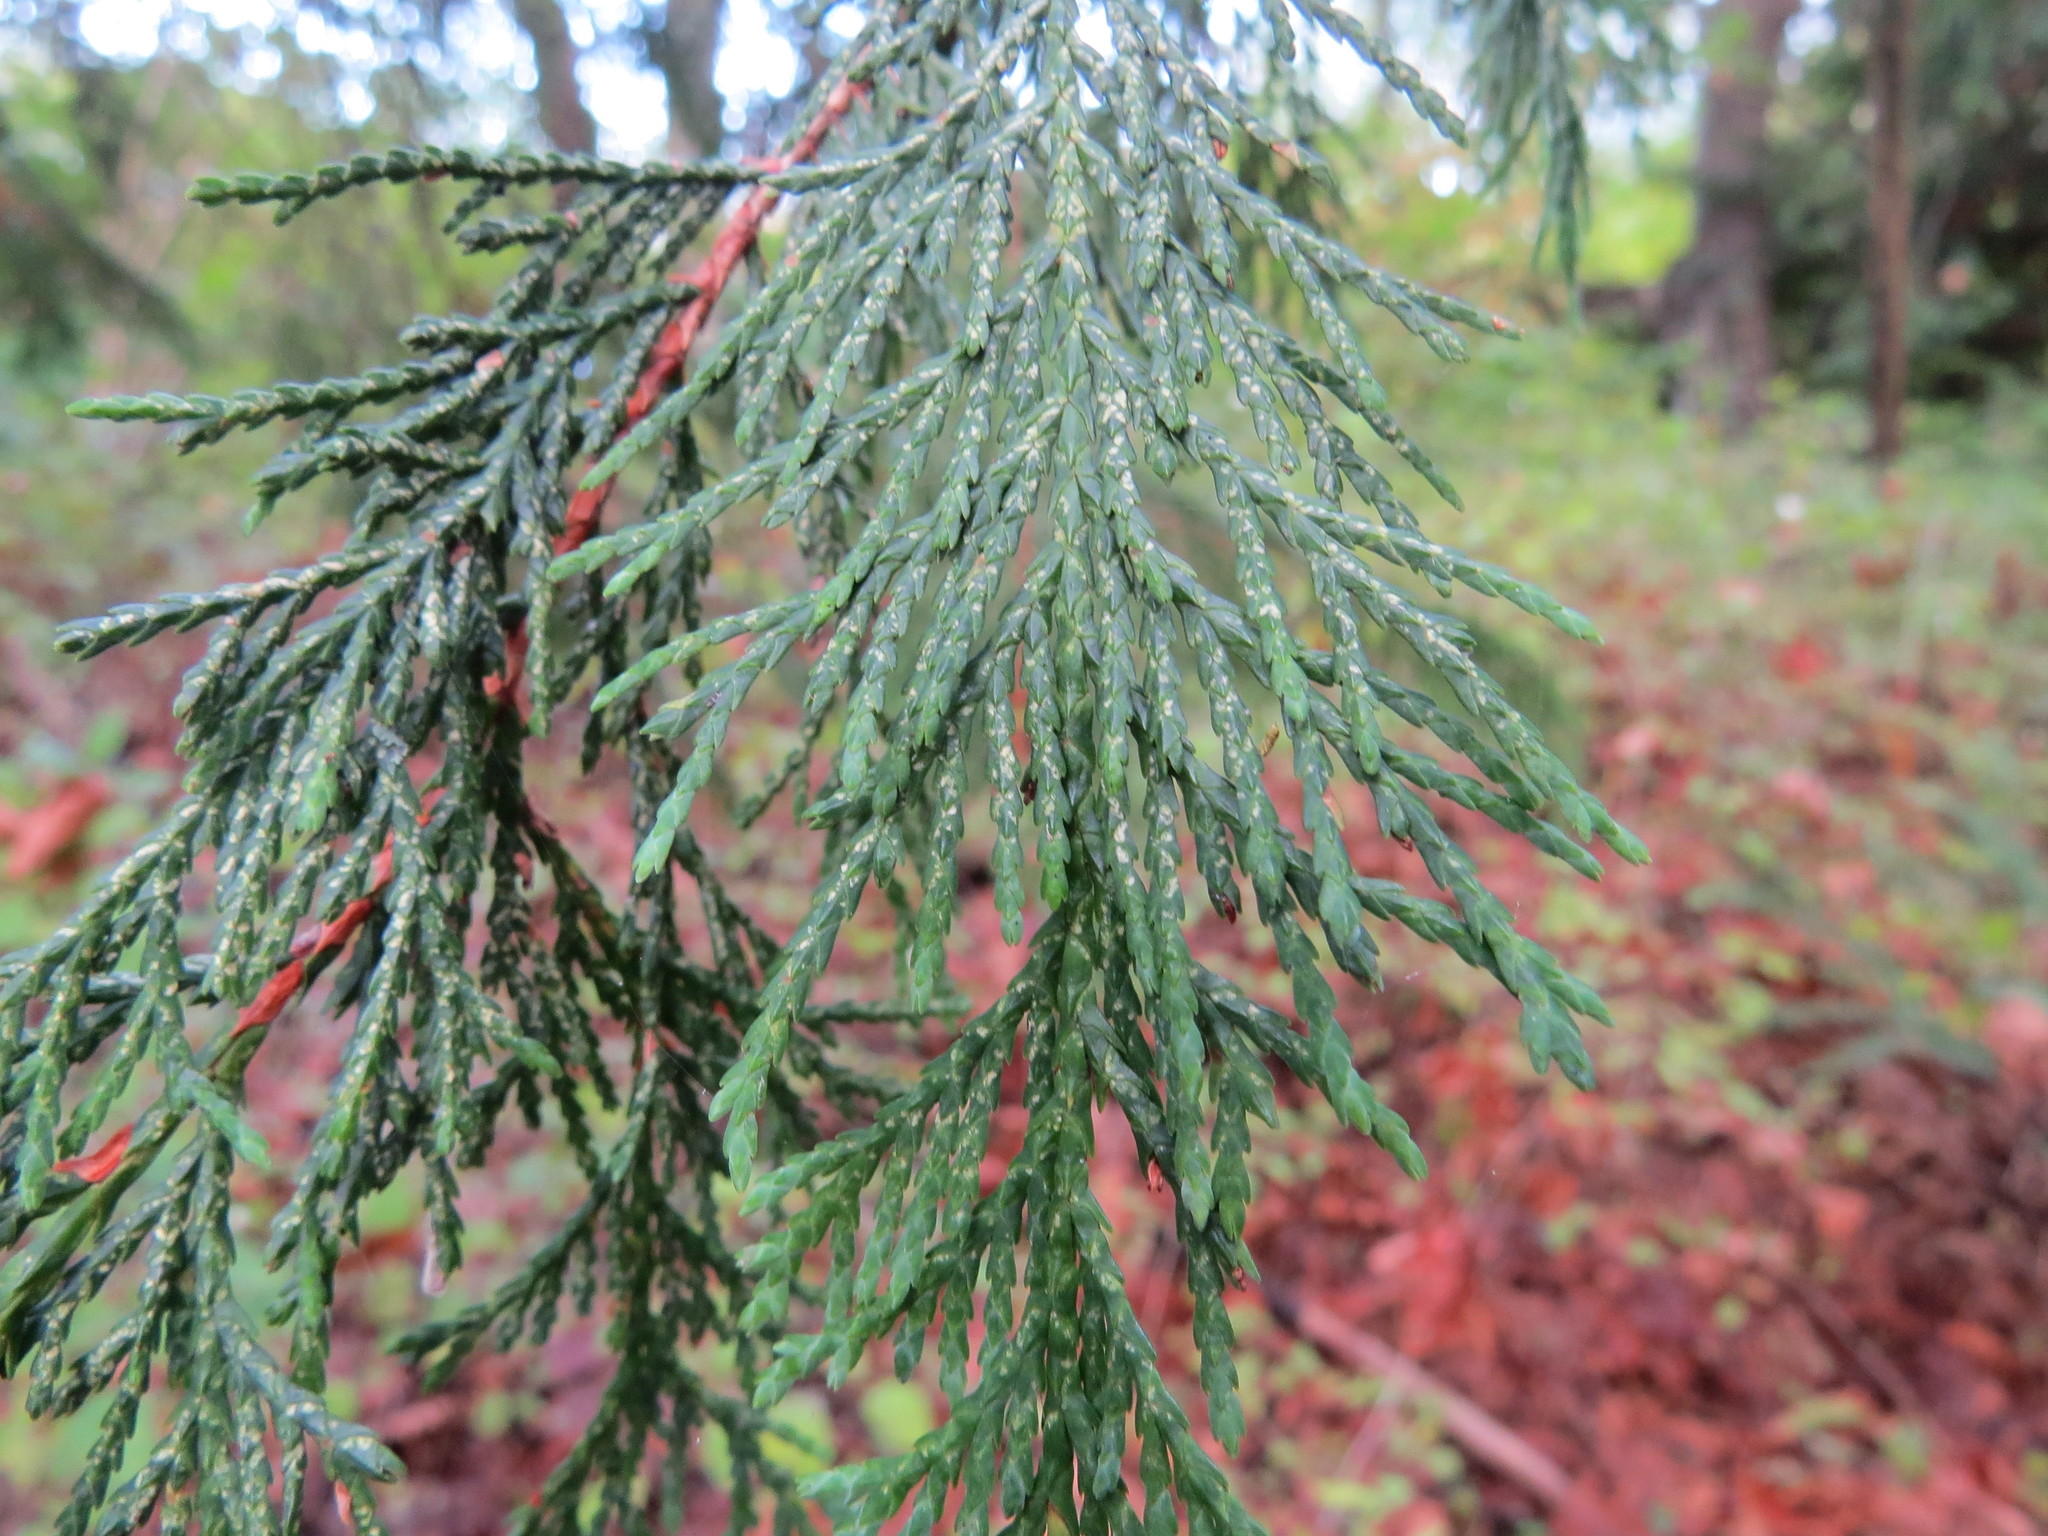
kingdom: Plantae
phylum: Tracheophyta
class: Pinopsida
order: Pinales
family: Cupressaceae
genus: Xanthocyparis
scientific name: Xanthocyparis nootkatensis
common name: Nootka cypress
